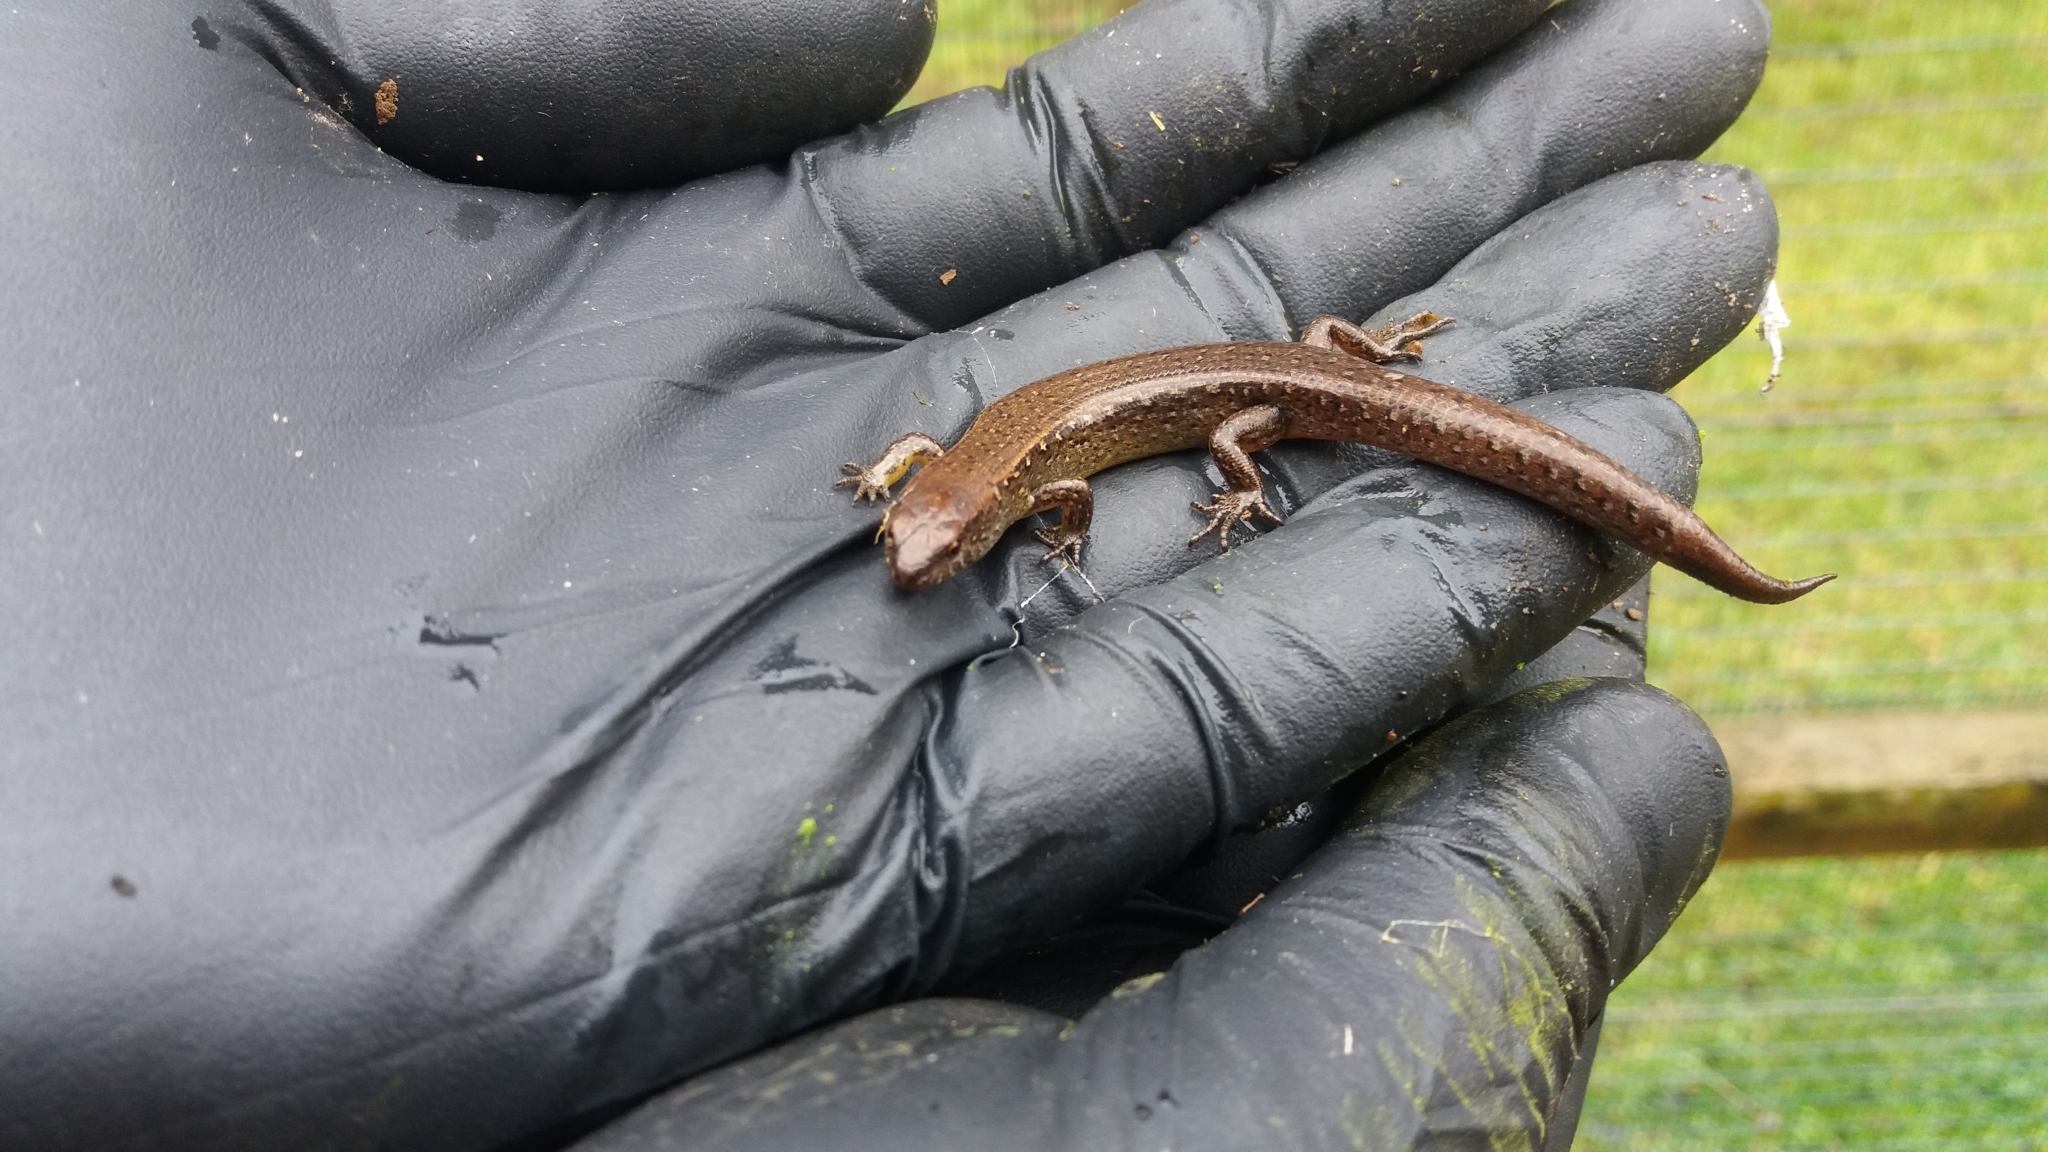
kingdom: Animalia
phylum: Chordata
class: Squamata
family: Scincidae
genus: Oligosoma
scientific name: Oligosoma aeneum
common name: Copper skink
